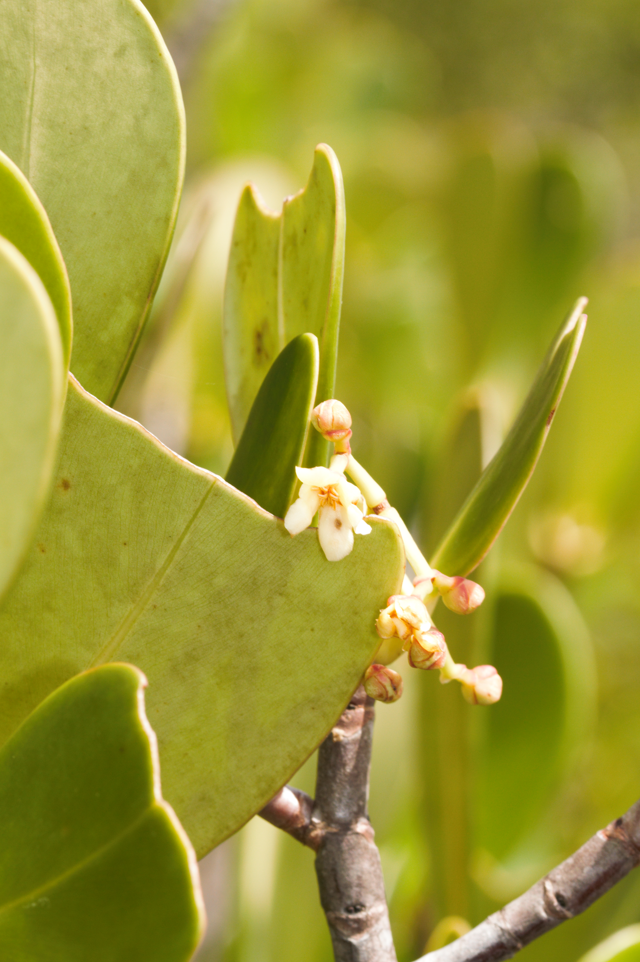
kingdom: Plantae
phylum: Tracheophyta
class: Magnoliopsida
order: Malpighiales
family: Clusiaceae
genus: Clusia
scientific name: Clusia blattophila
